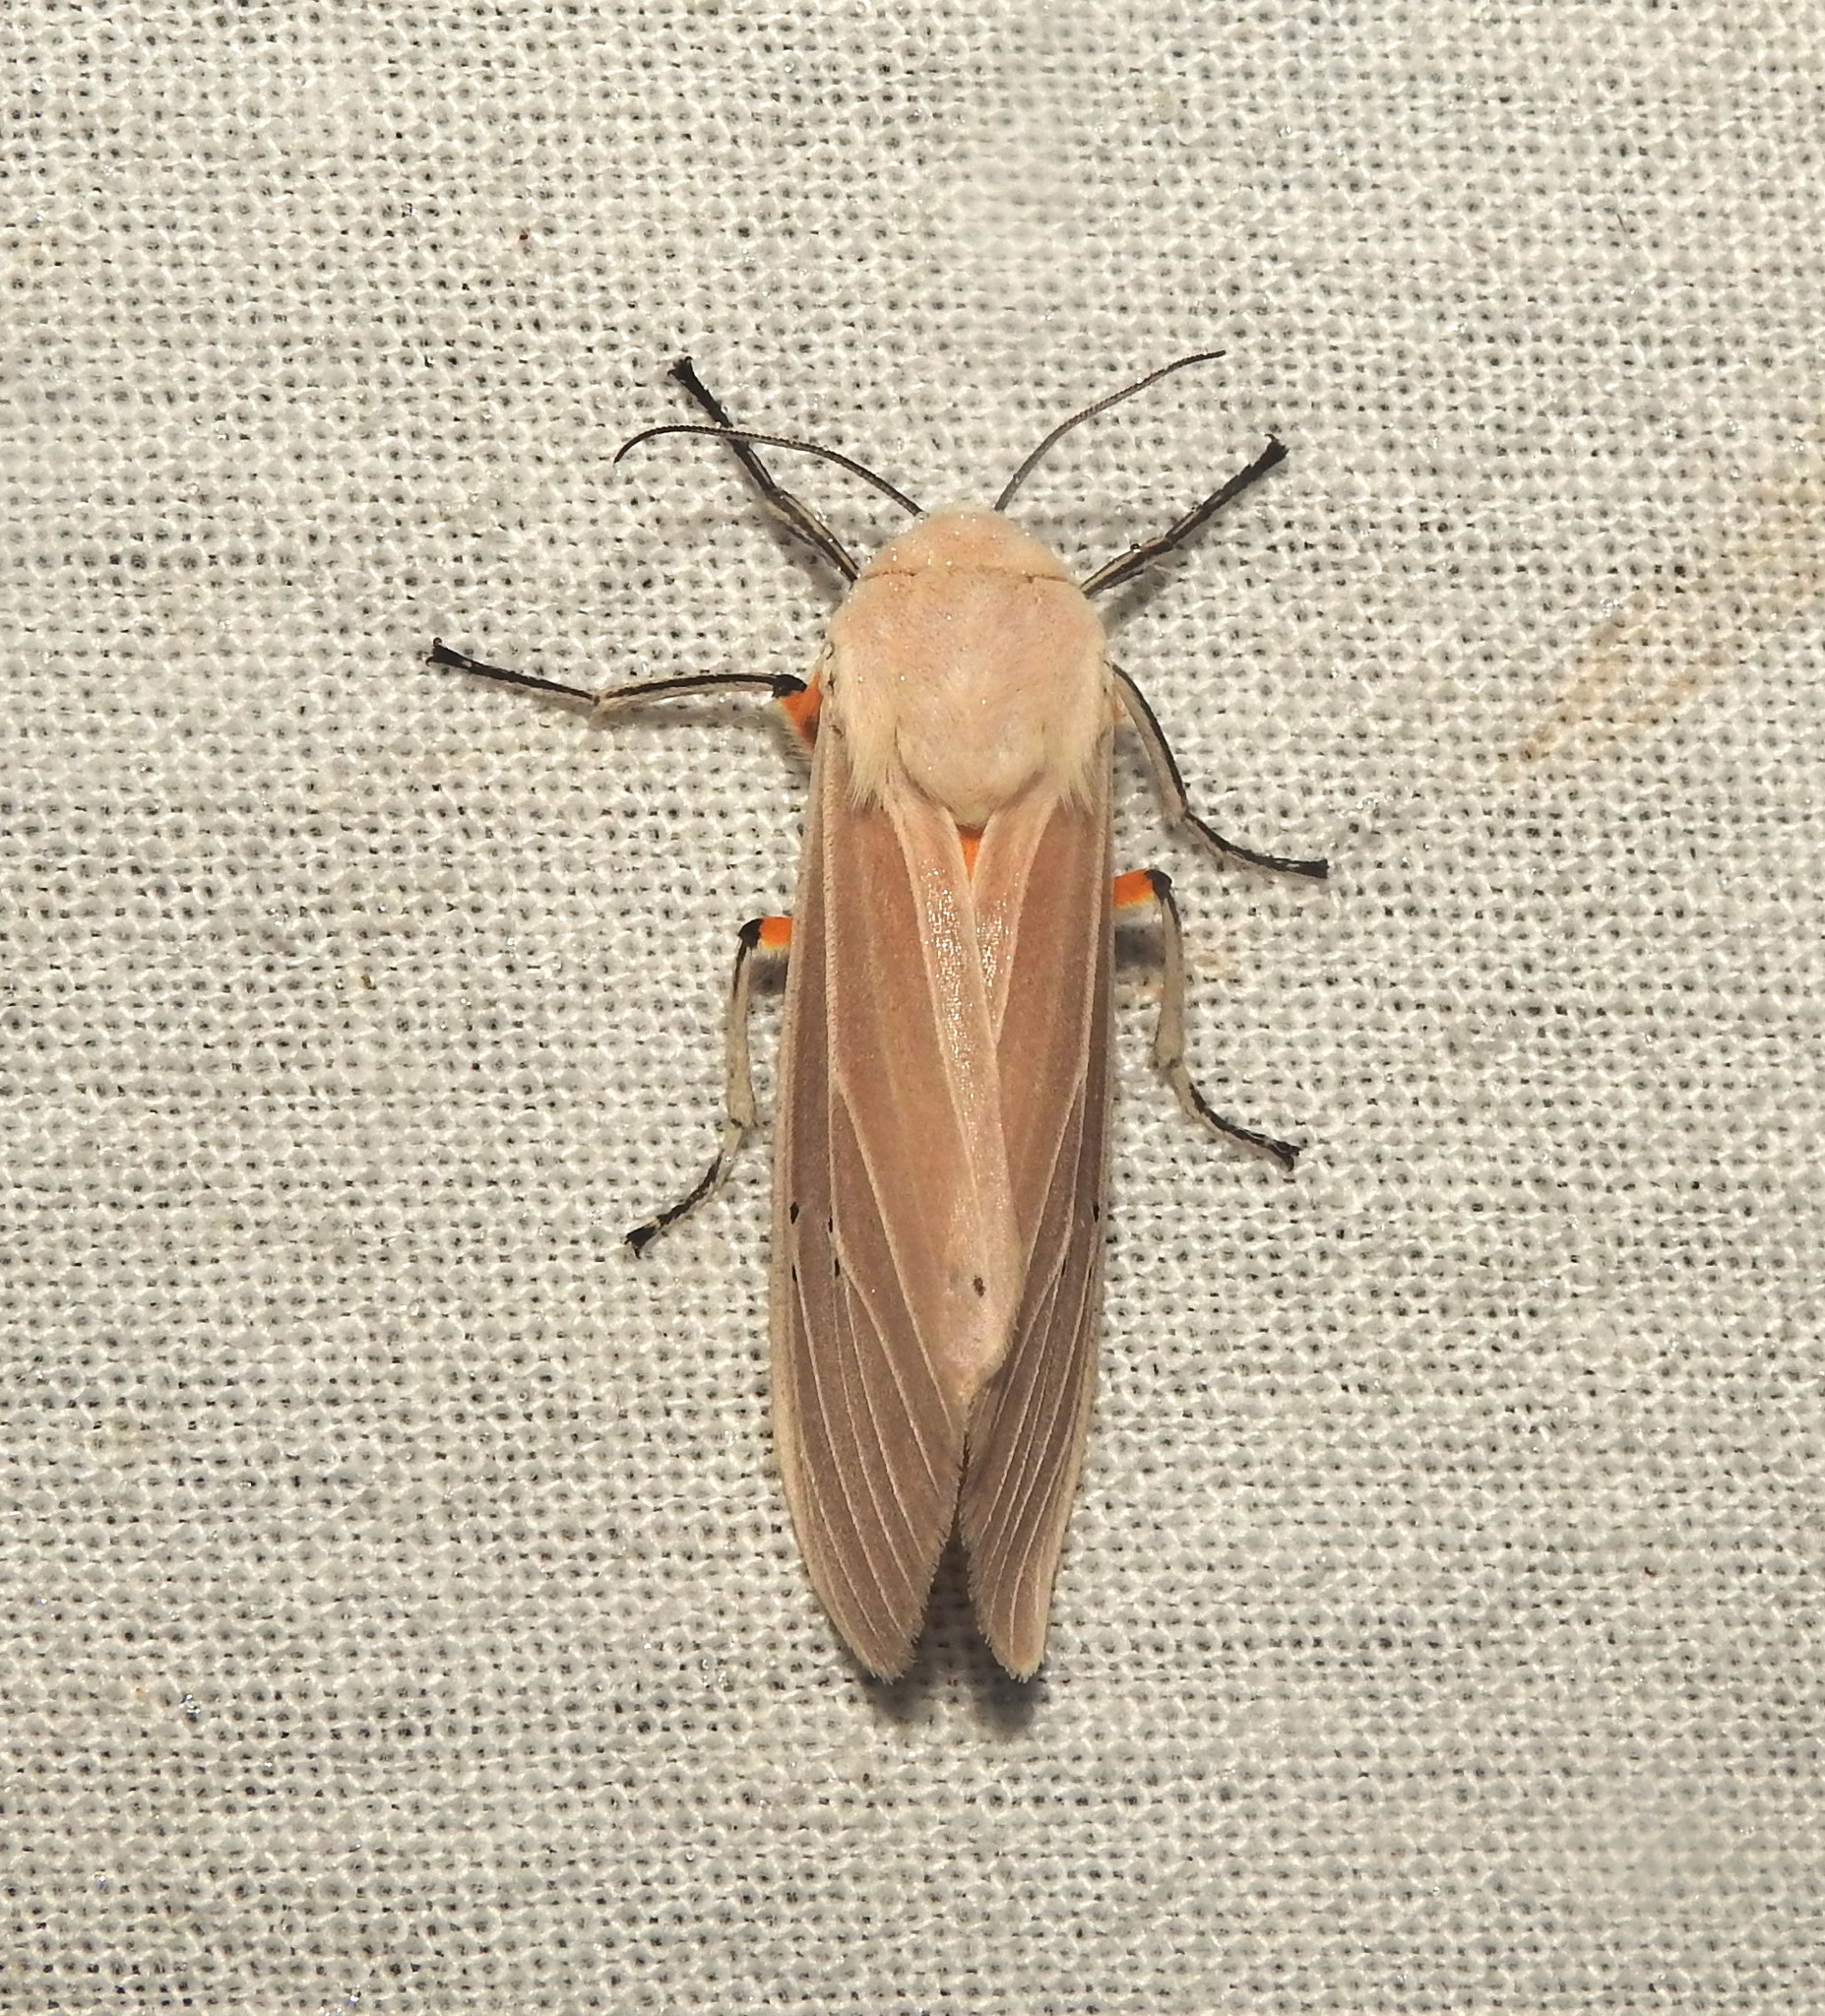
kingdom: Animalia
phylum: Arthropoda
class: Insecta
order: Lepidoptera
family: Erebidae
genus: Creatonotos
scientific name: Creatonotos transiens
